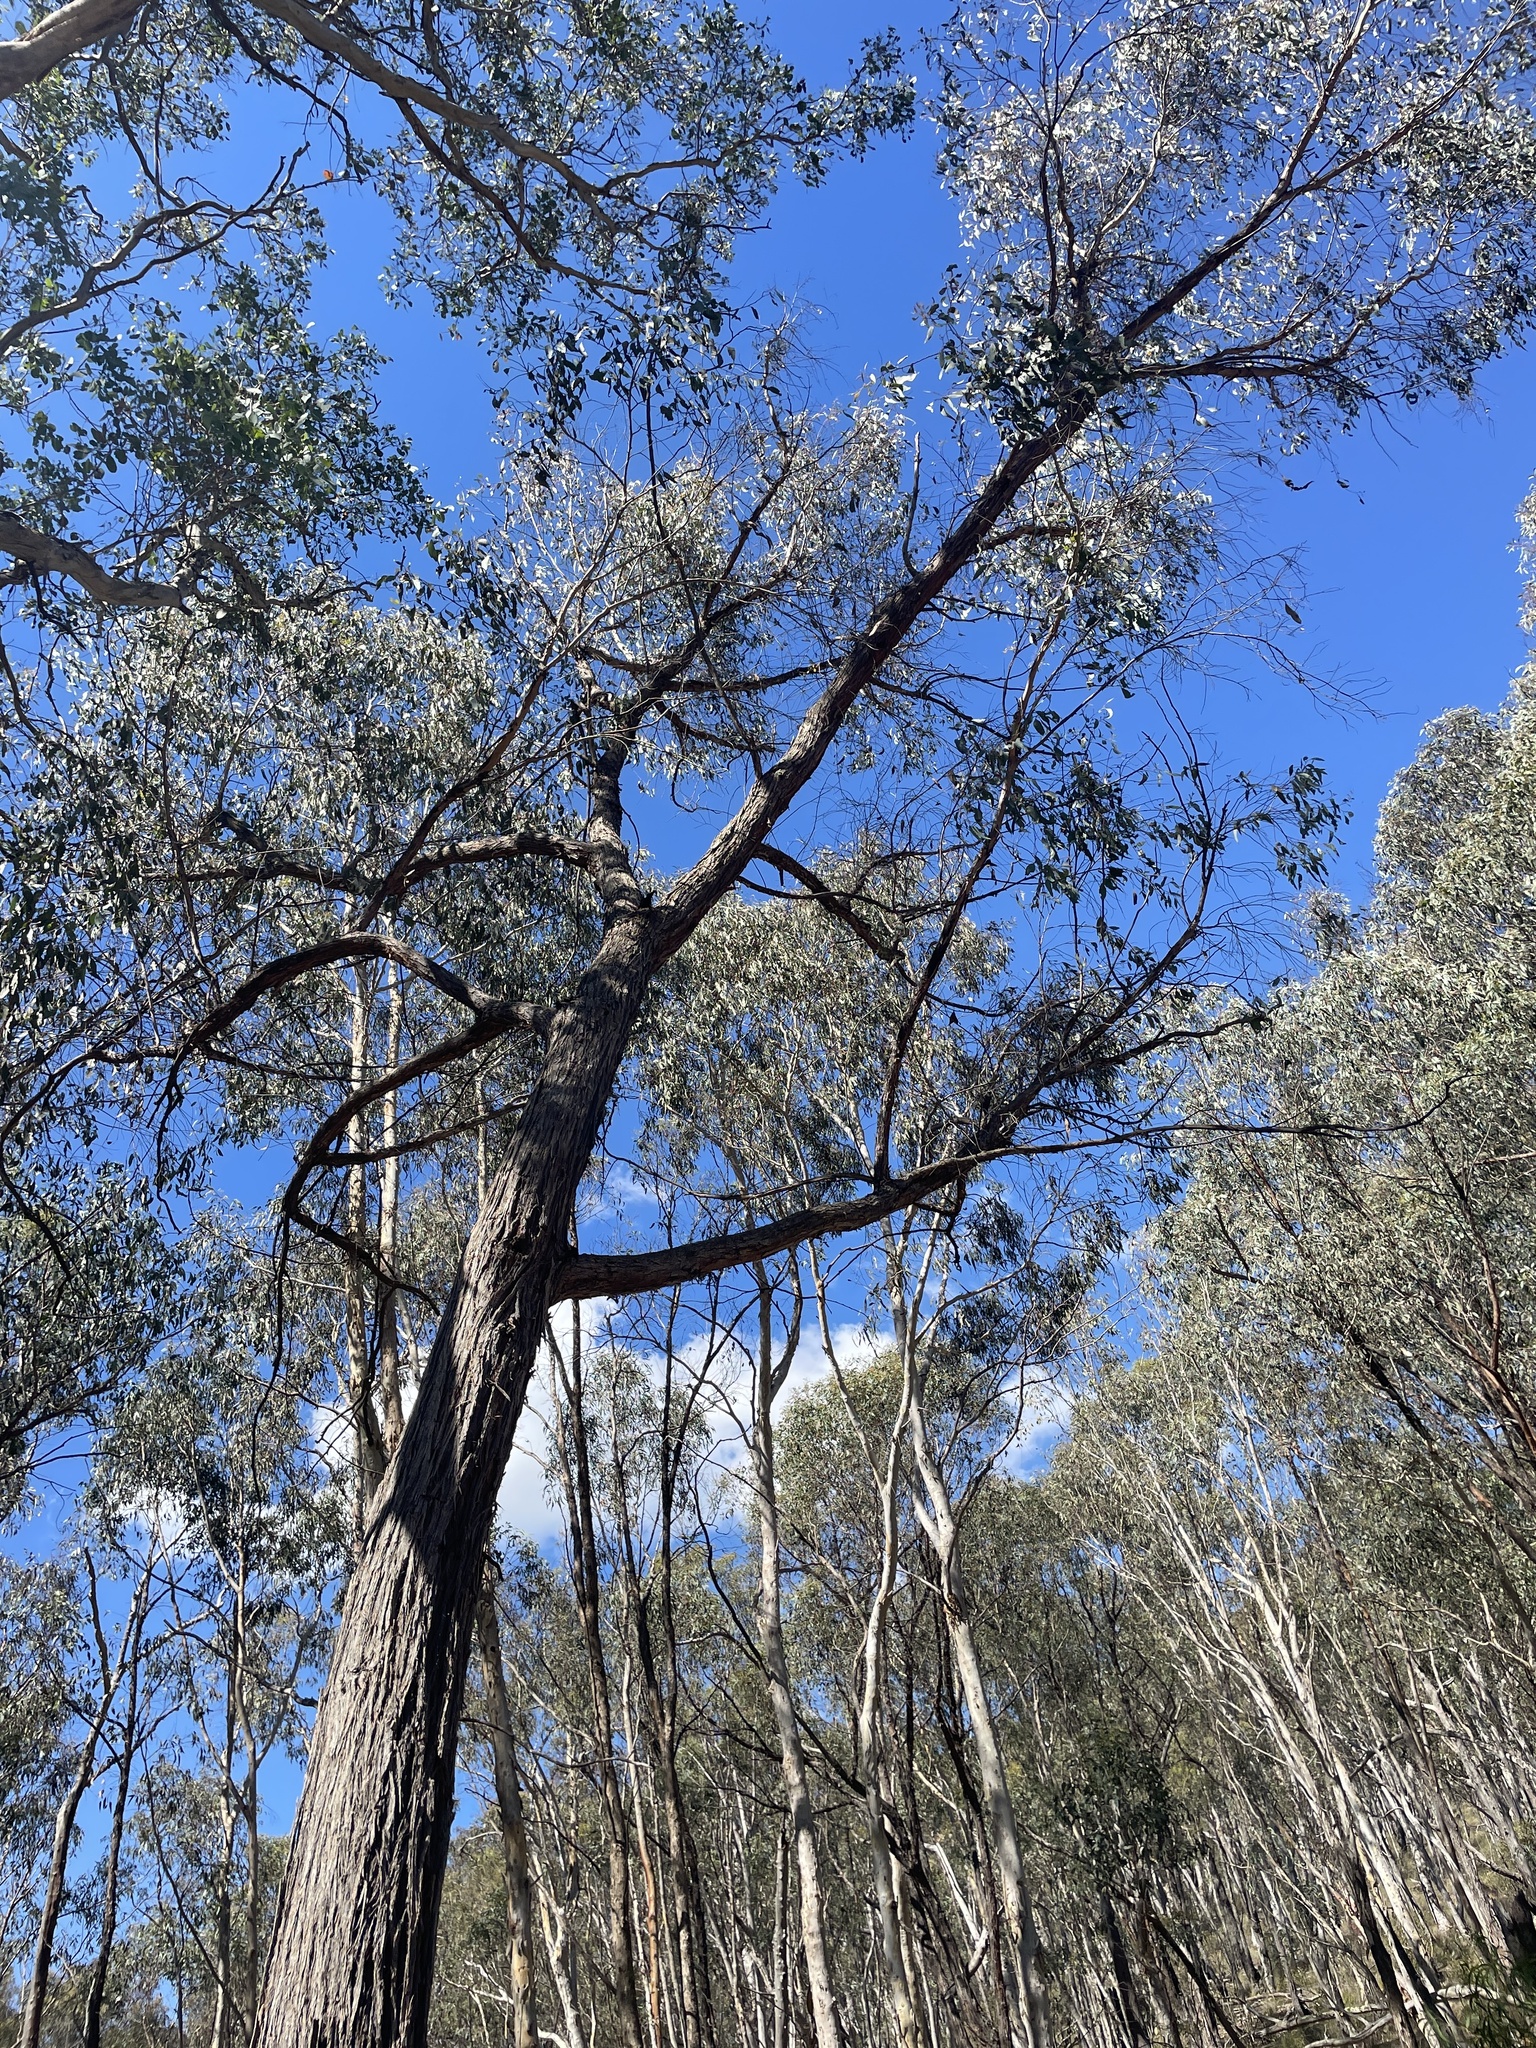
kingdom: Plantae
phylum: Tracheophyta
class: Magnoliopsida
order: Myrtales
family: Myrtaceae
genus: Eucalyptus
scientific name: Eucalyptus macrorhyncha
